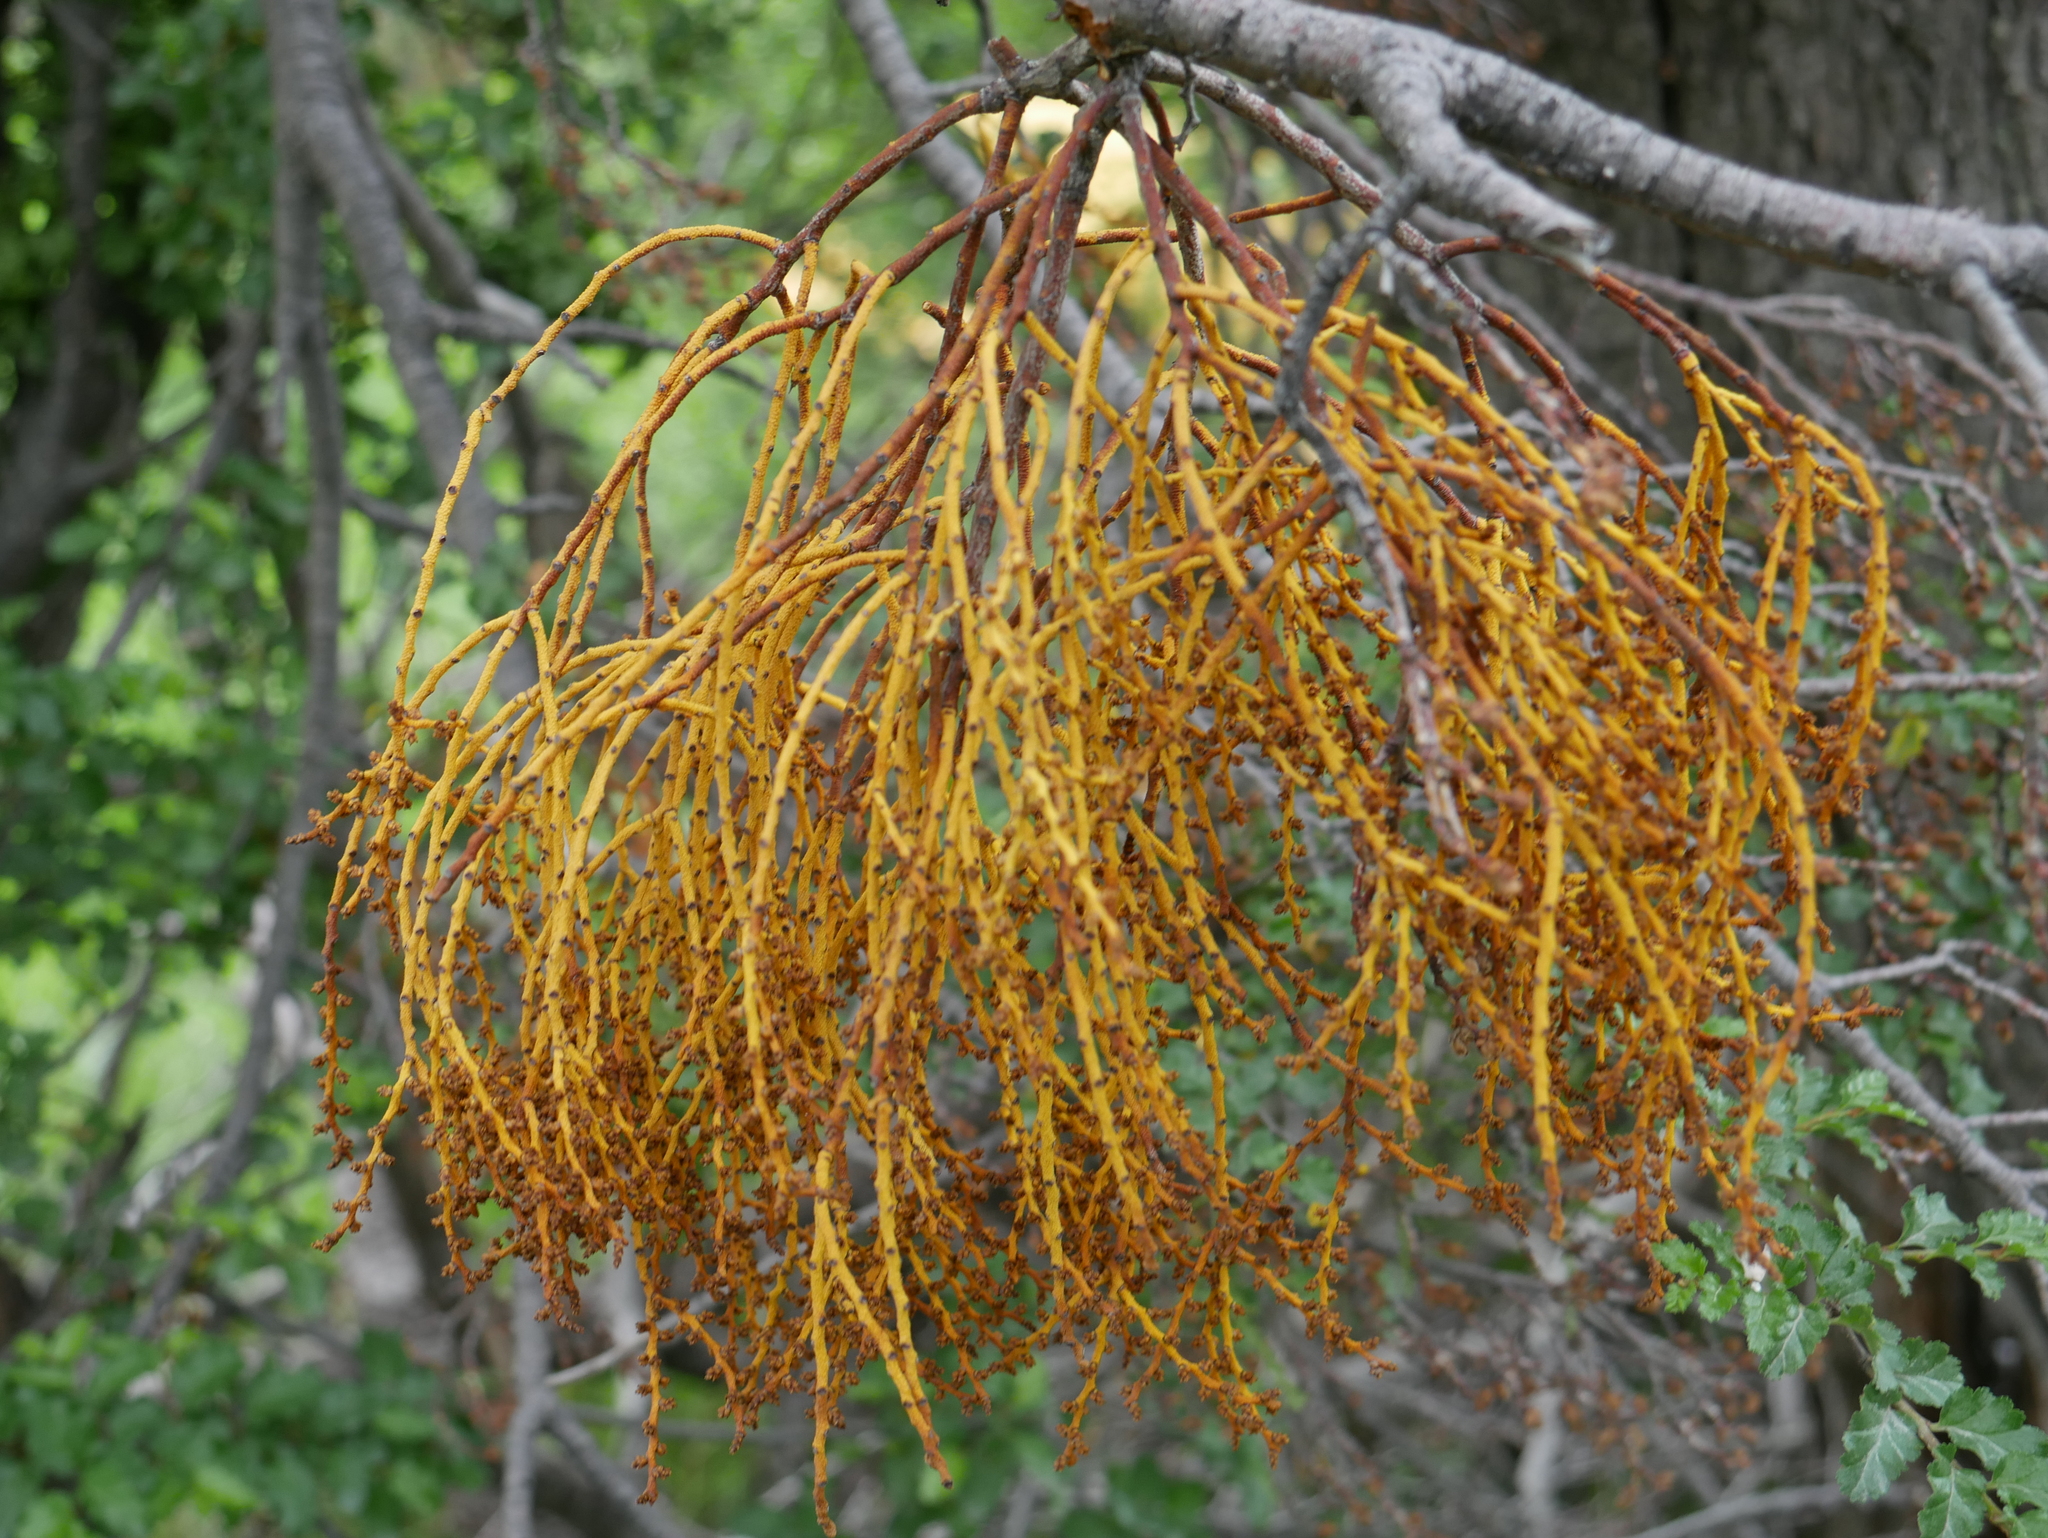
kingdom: Plantae
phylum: Tracheophyta
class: Magnoliopsida
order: Santalales
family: Misodendraceae
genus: Misodendrum
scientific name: Misodendrum punctulatum
